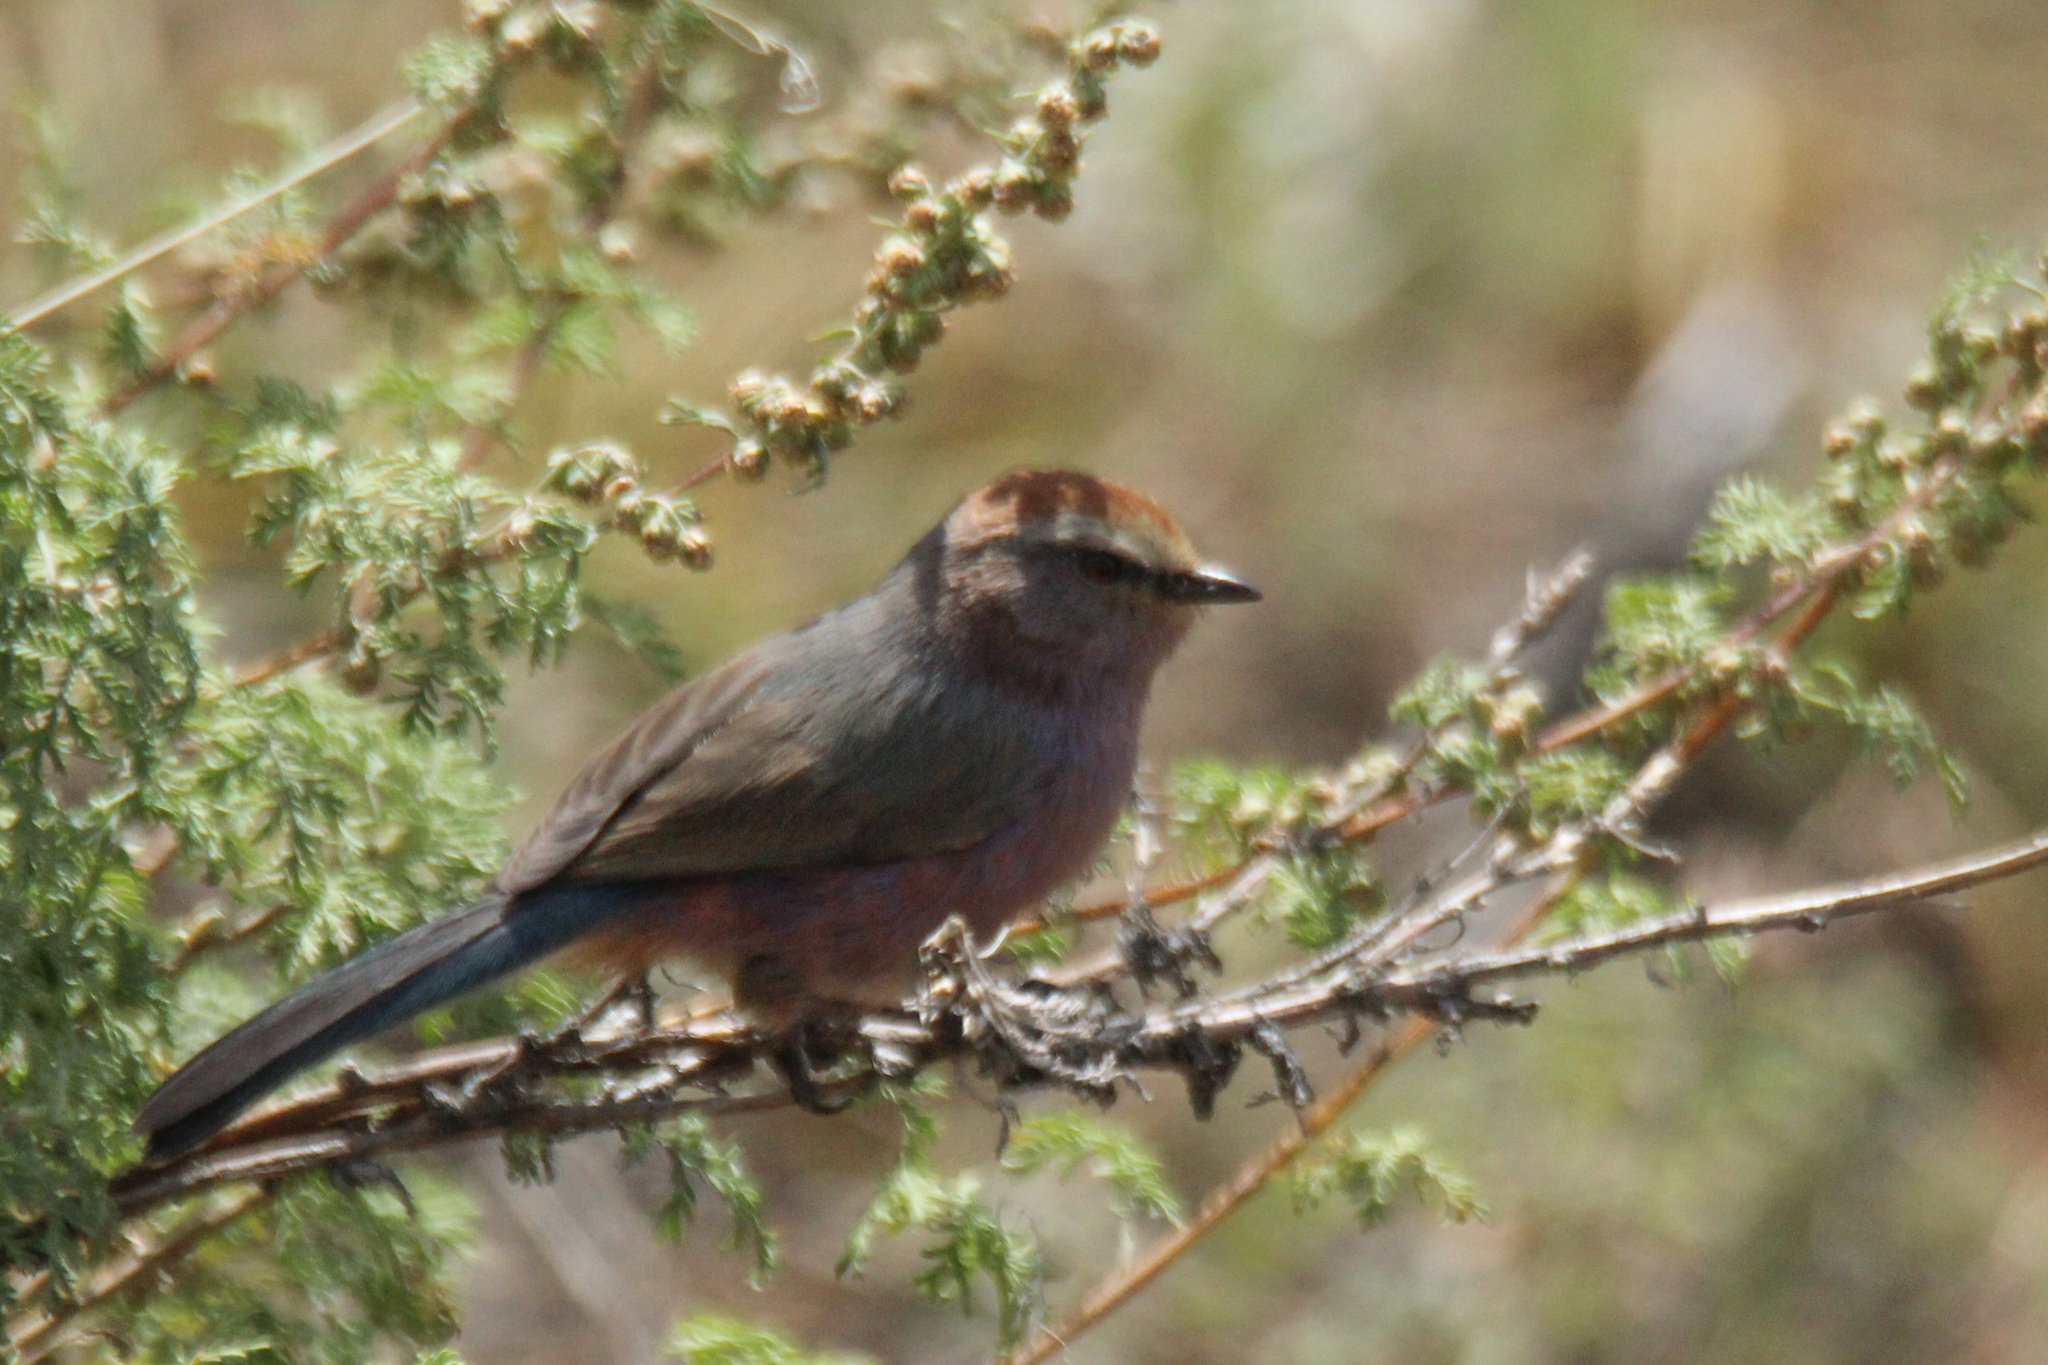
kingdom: Animalia
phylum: Chordata
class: Aves
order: Passeriformes
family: Aegithalidae
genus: Leptopoecile
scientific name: Leptopoecile sophiae
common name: White-browed tit-warbler
